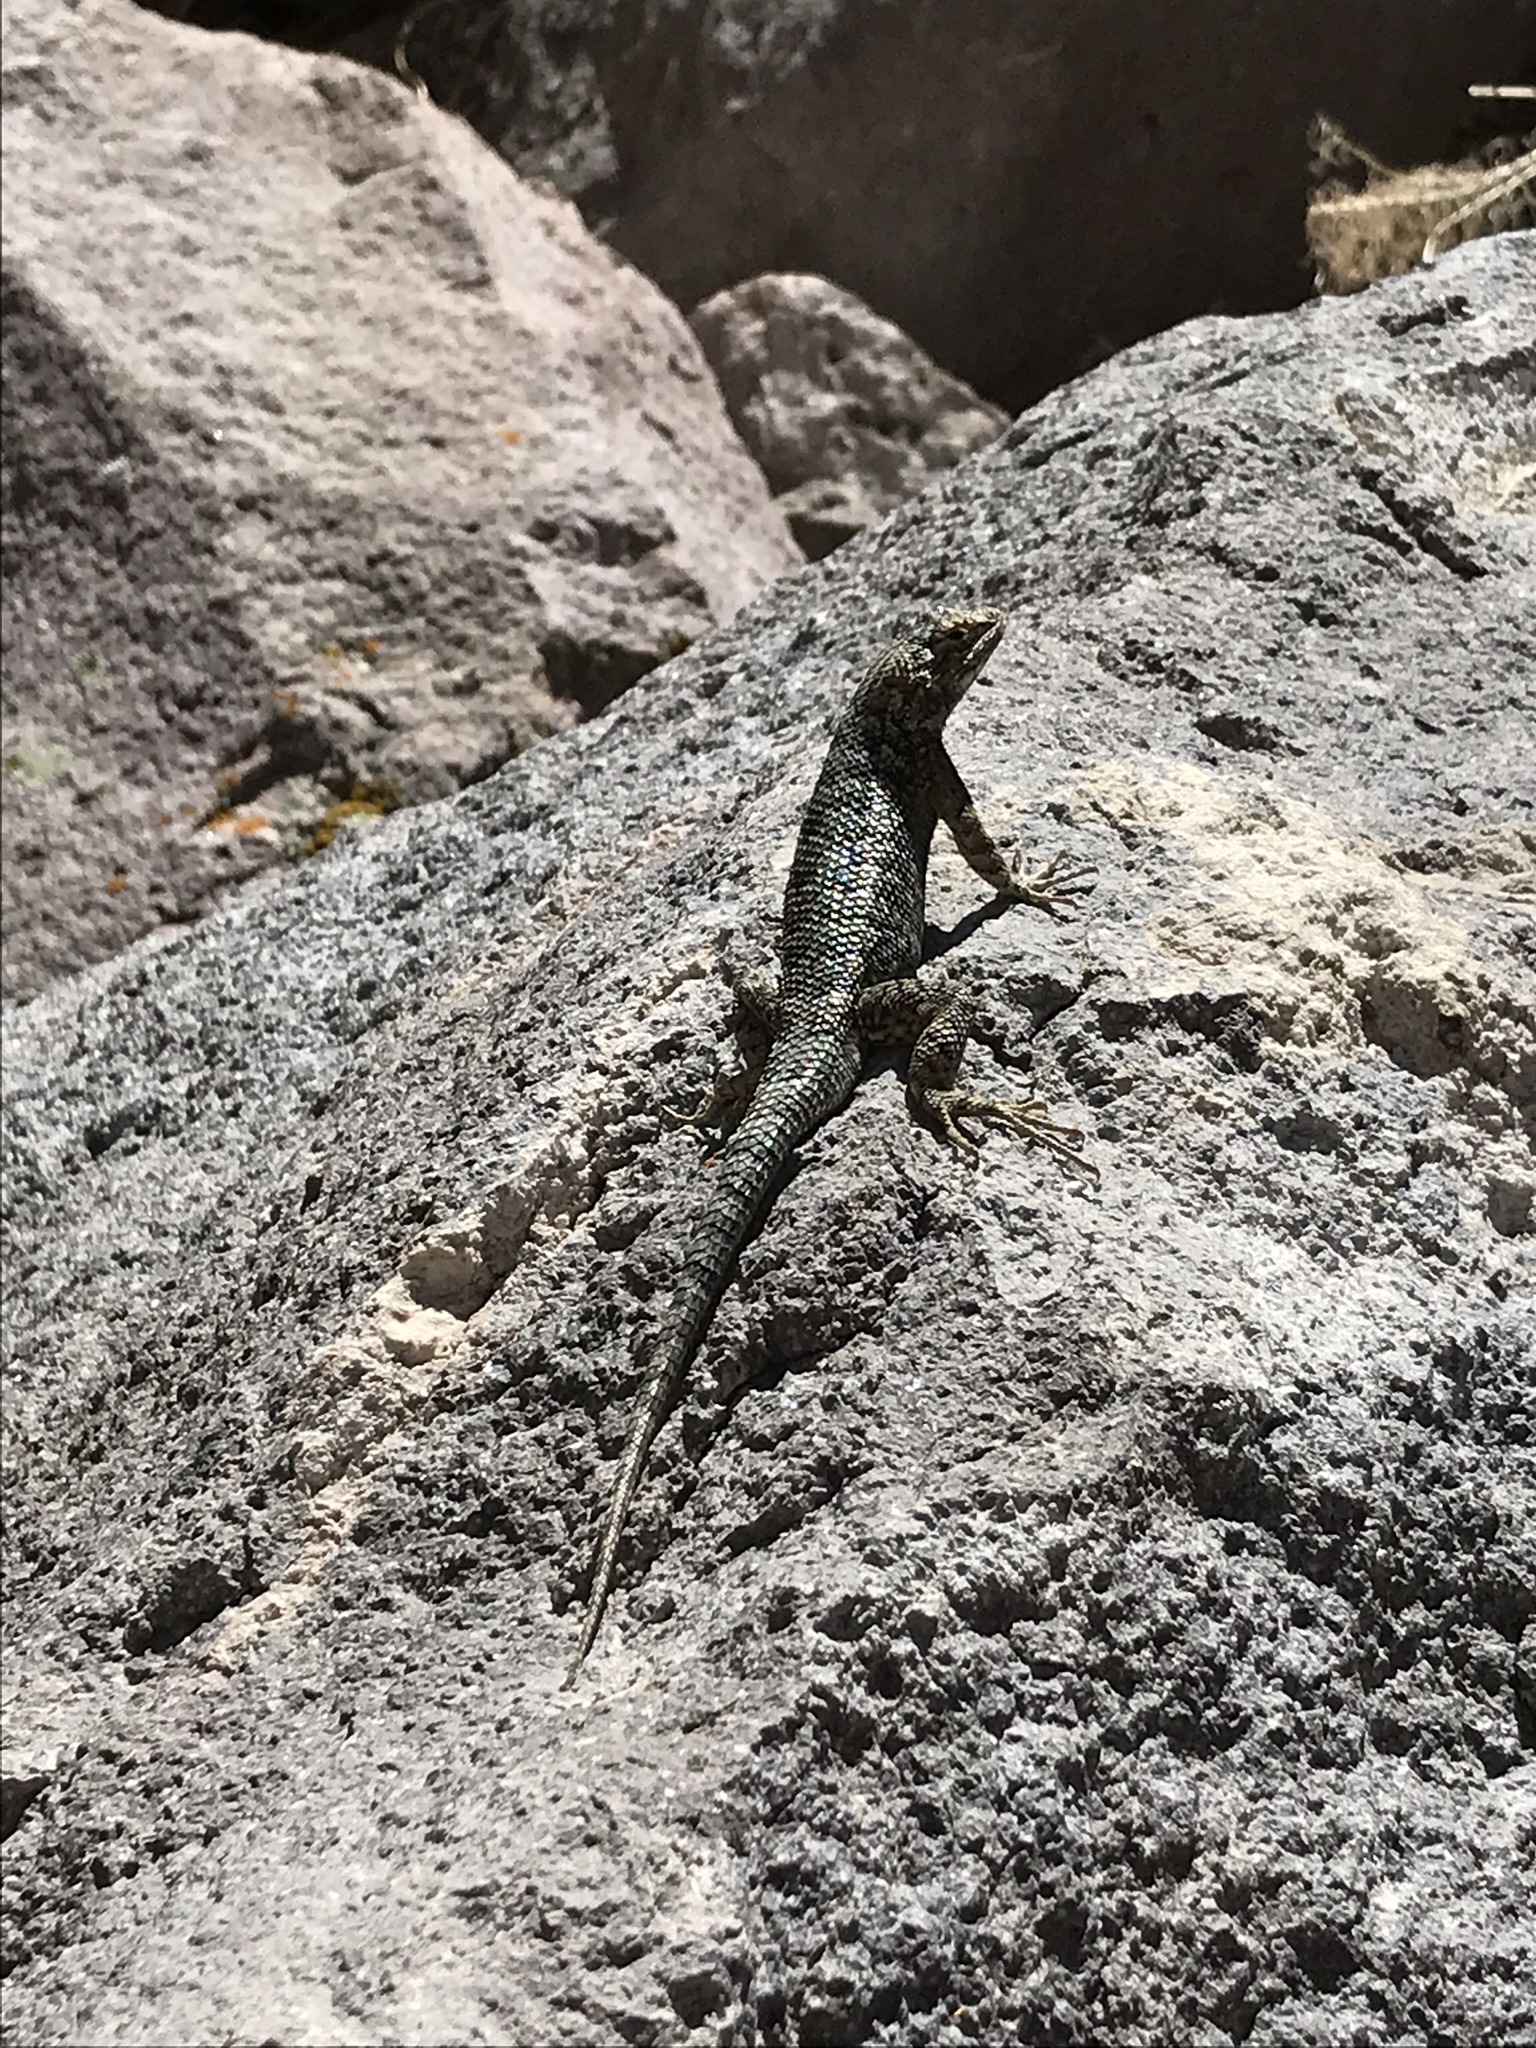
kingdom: Animalia
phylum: Chordata
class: Squamata
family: Phrynosomatidae
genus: Sceloporus
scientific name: Sceloporus uniformis
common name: Yellow-backed spiny lizard
